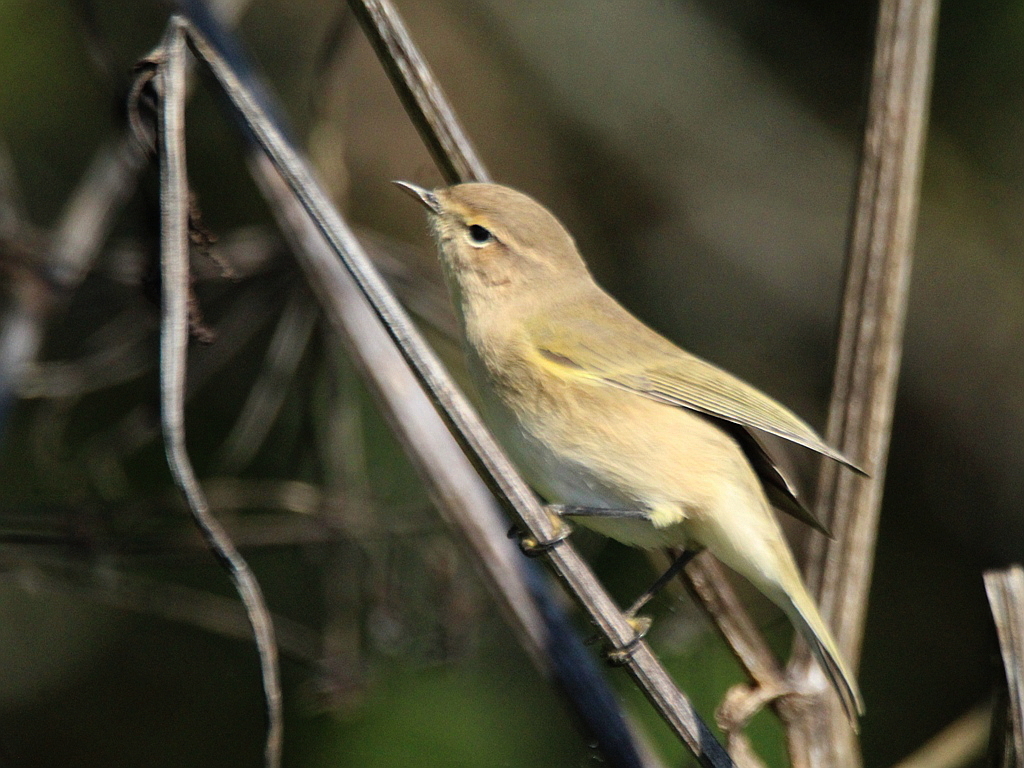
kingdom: Animalia
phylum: Chordata
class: Aves
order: Passeriformes
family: Phylloscopidae
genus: Phylloscopus
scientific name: Phylloscopus collybita
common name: Common chiffchaff
